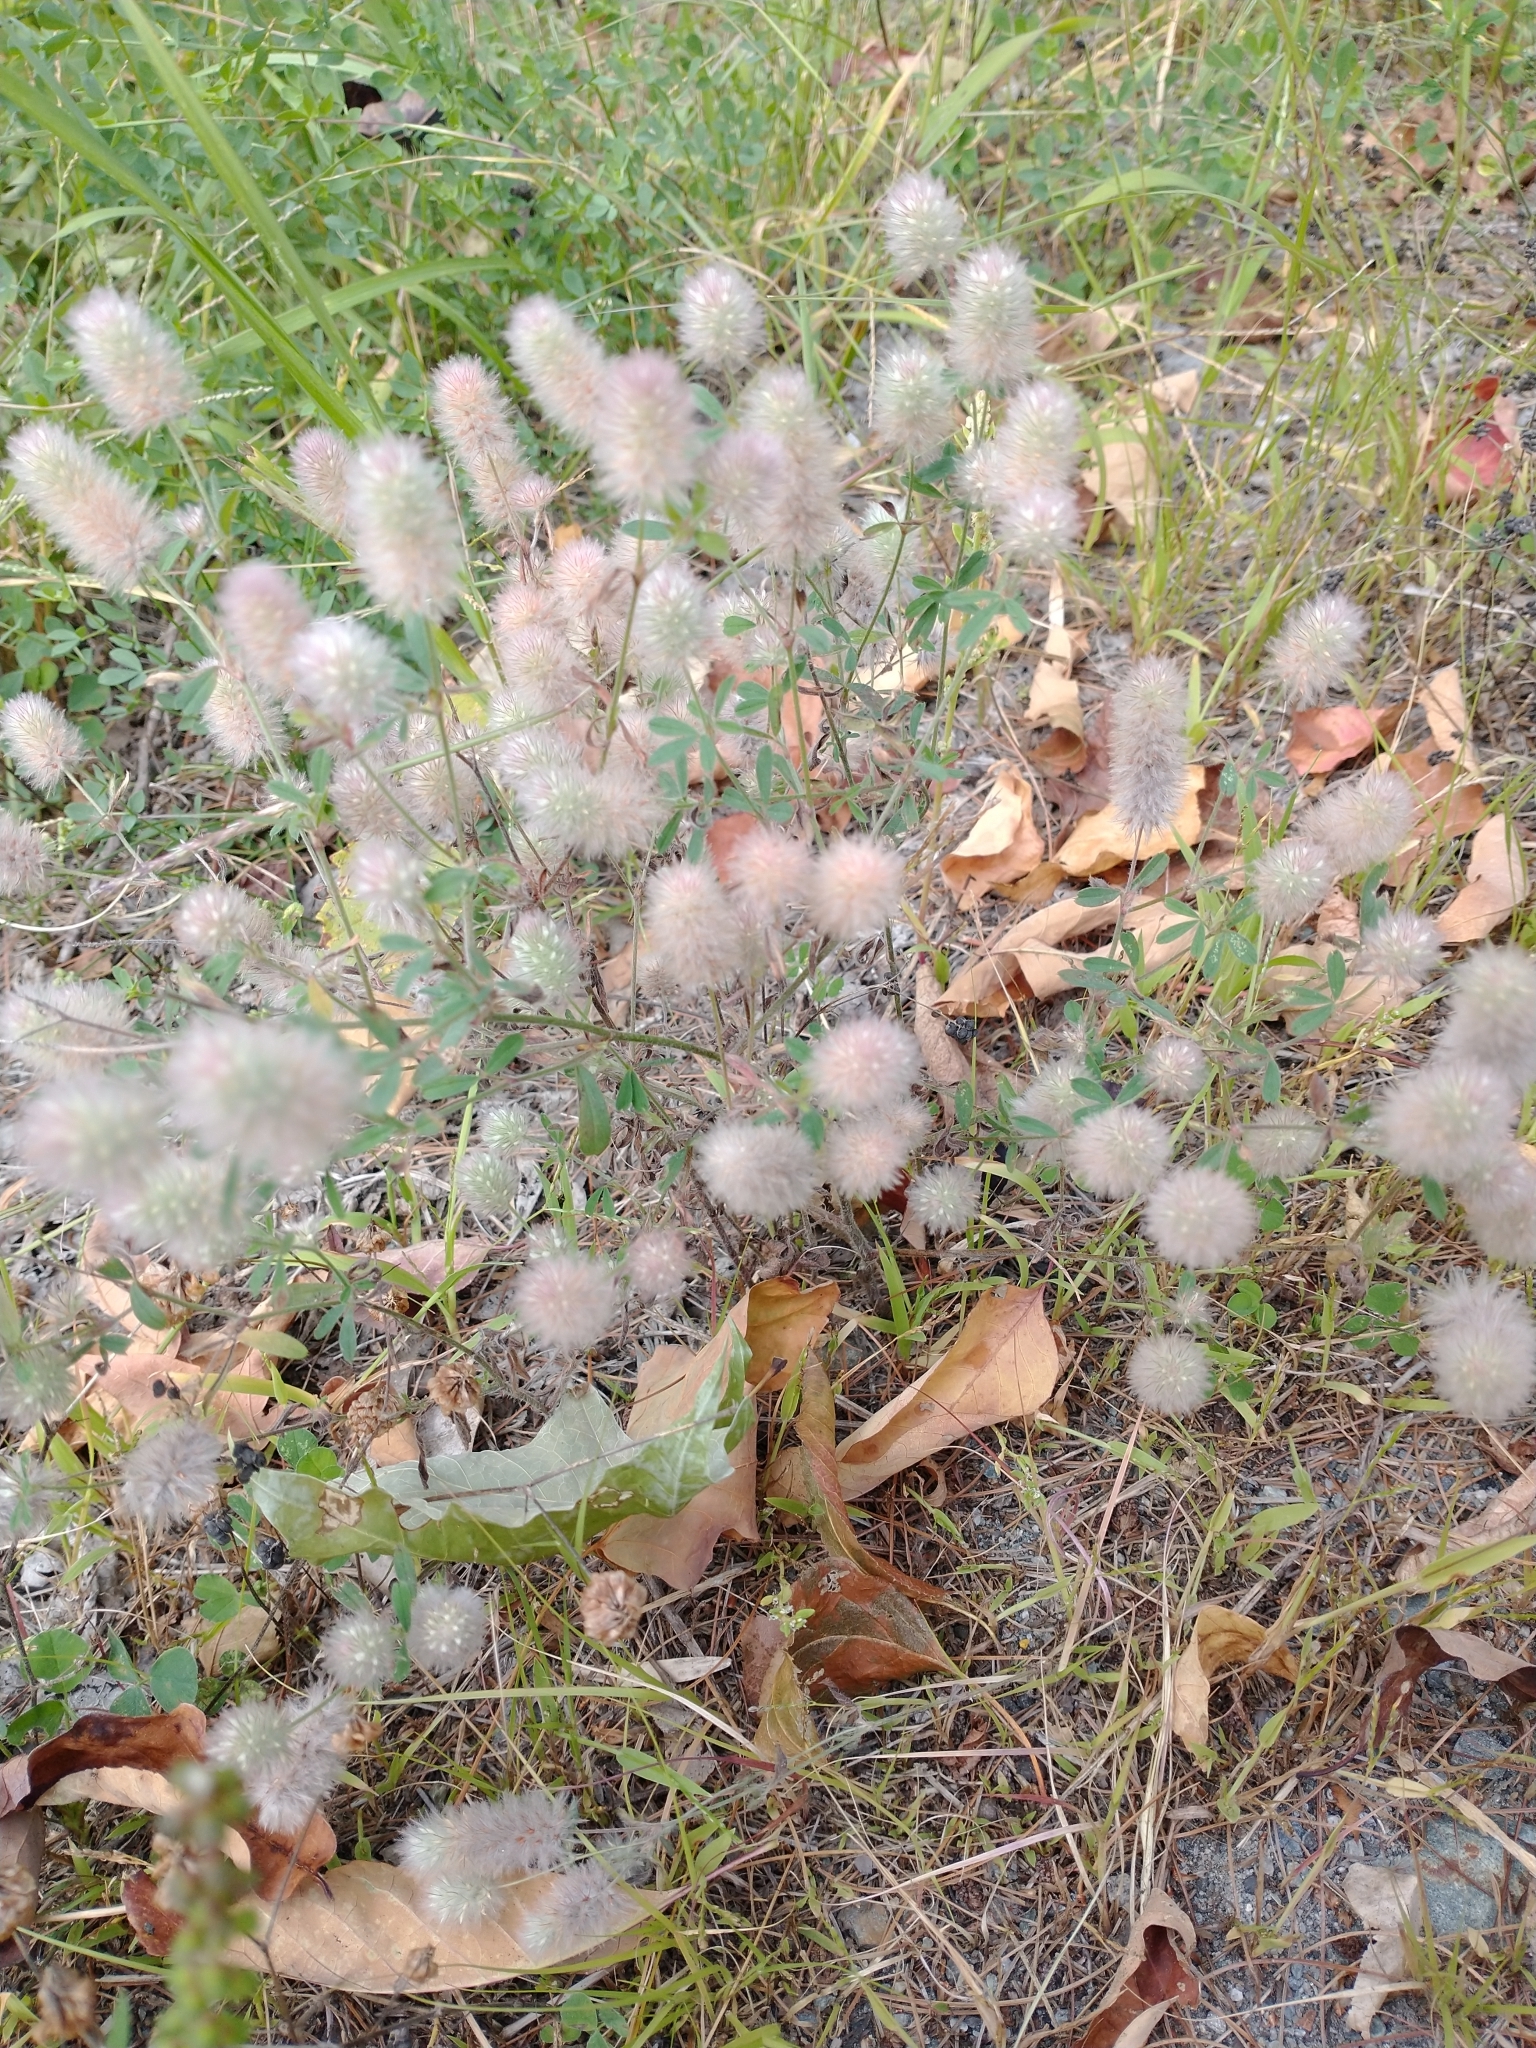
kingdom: Plantae
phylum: Tracheophyta
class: Magnoliopsida
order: Fabales
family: Fabaceae
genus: Trifolium
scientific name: Trifolium arvense
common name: Hare's-foot clover
